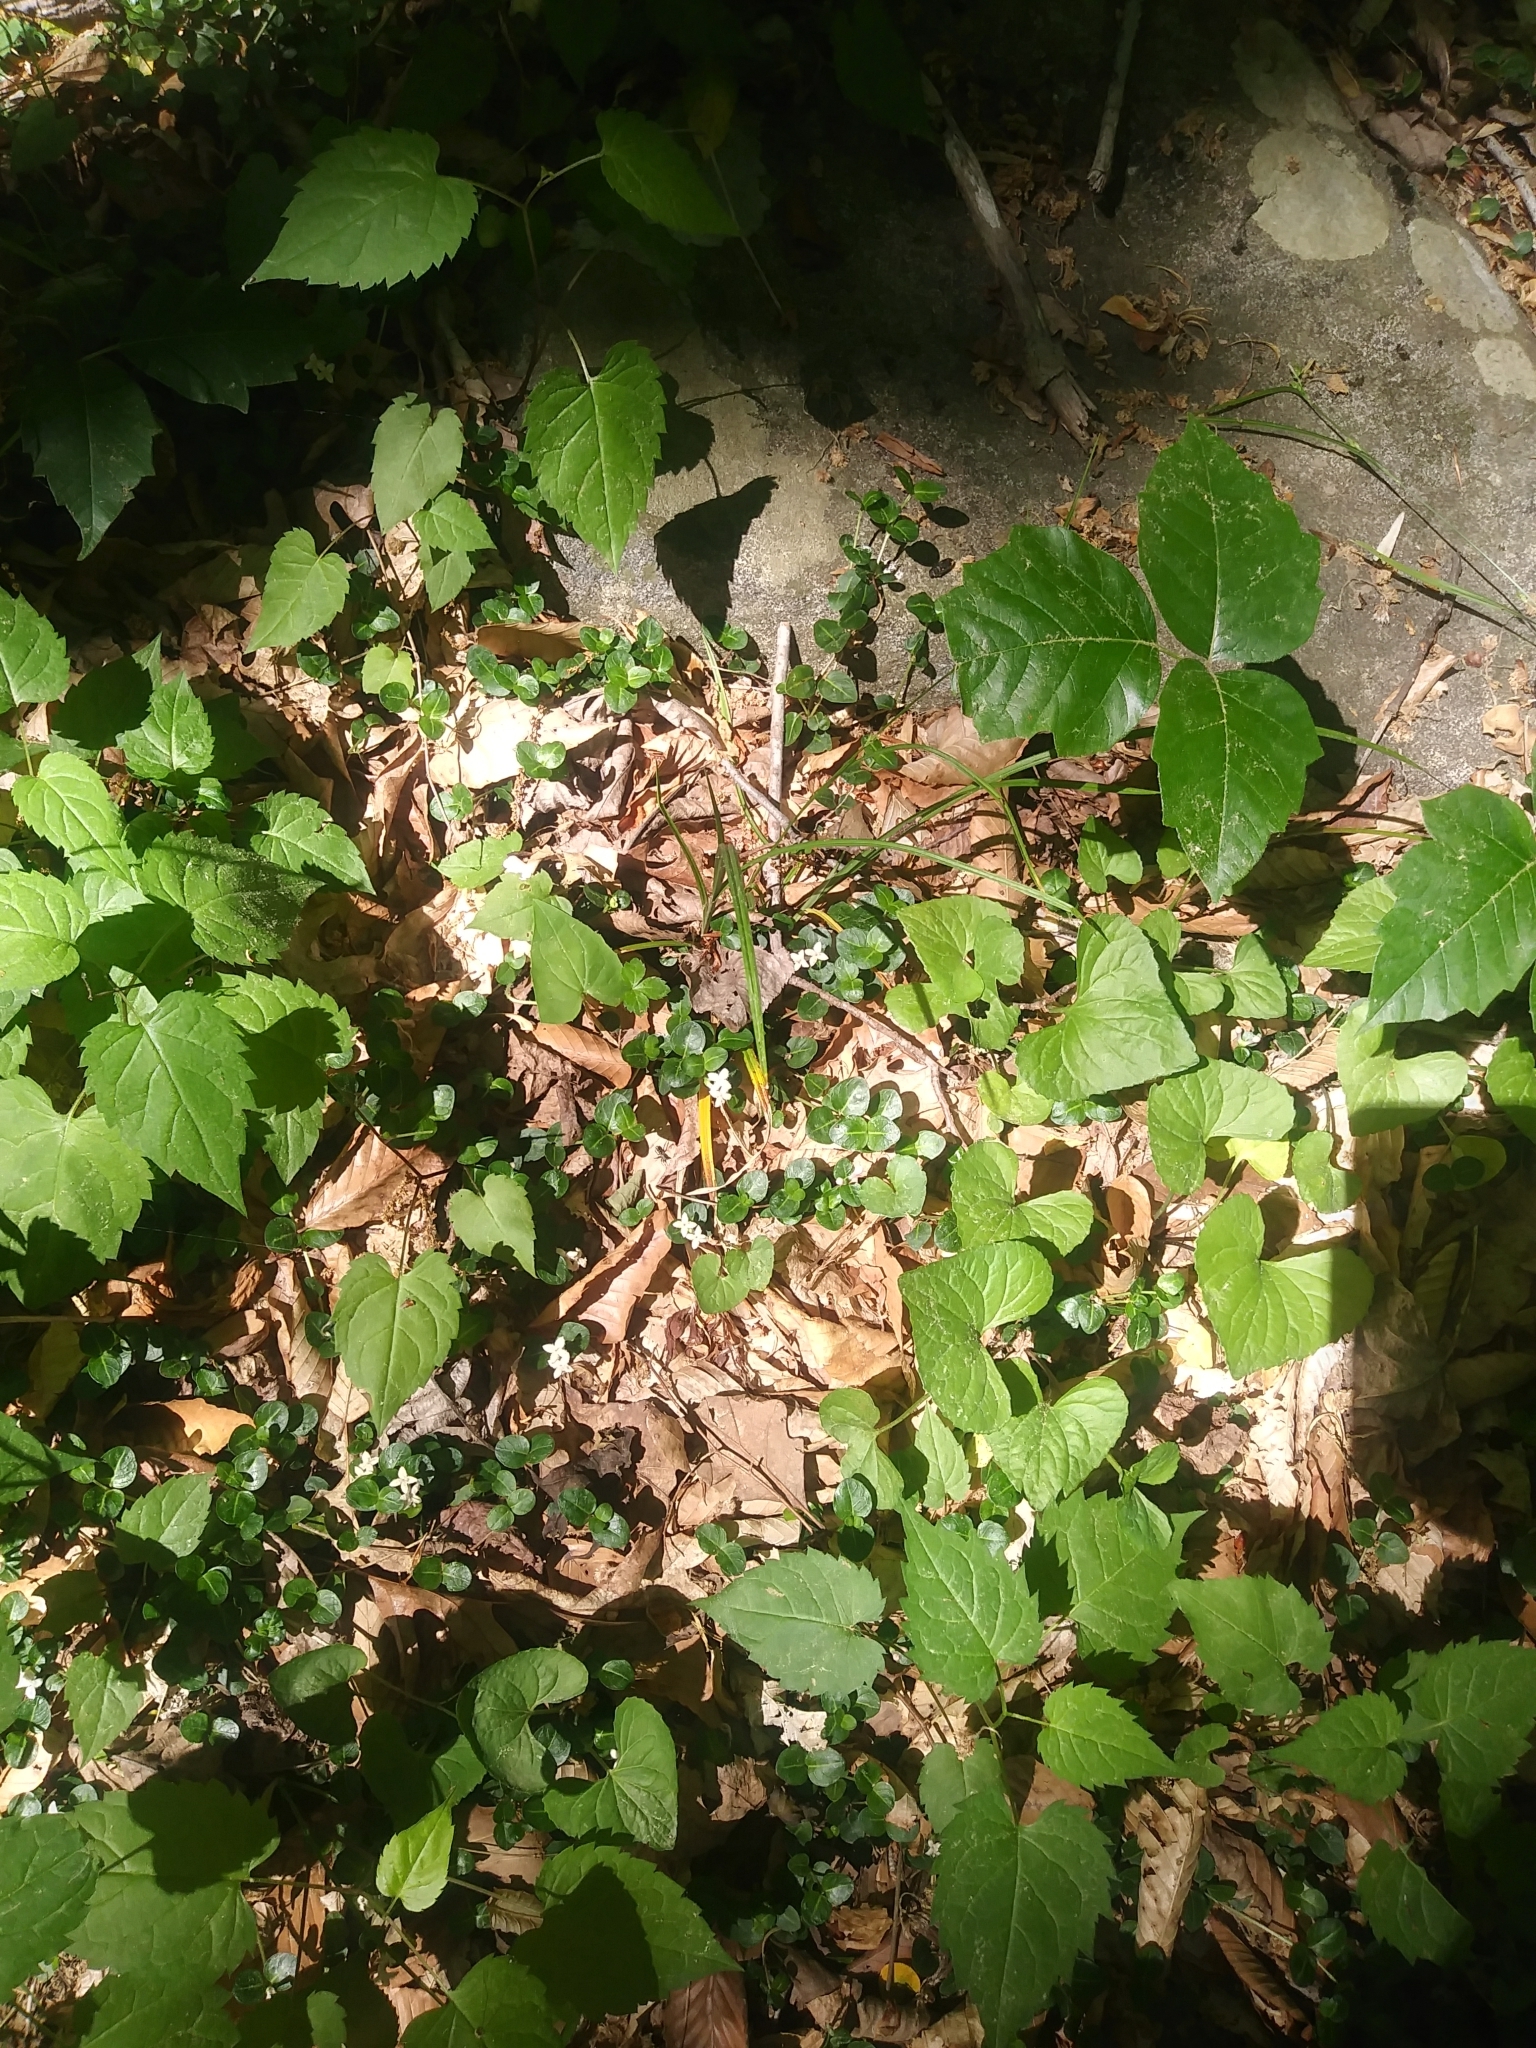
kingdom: Plantae
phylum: Tracheophyta
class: Magnoliopsida
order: Gentianales
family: Rubiaceae
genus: Mitchella
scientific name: Mitchella repens
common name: Partridge-berry
